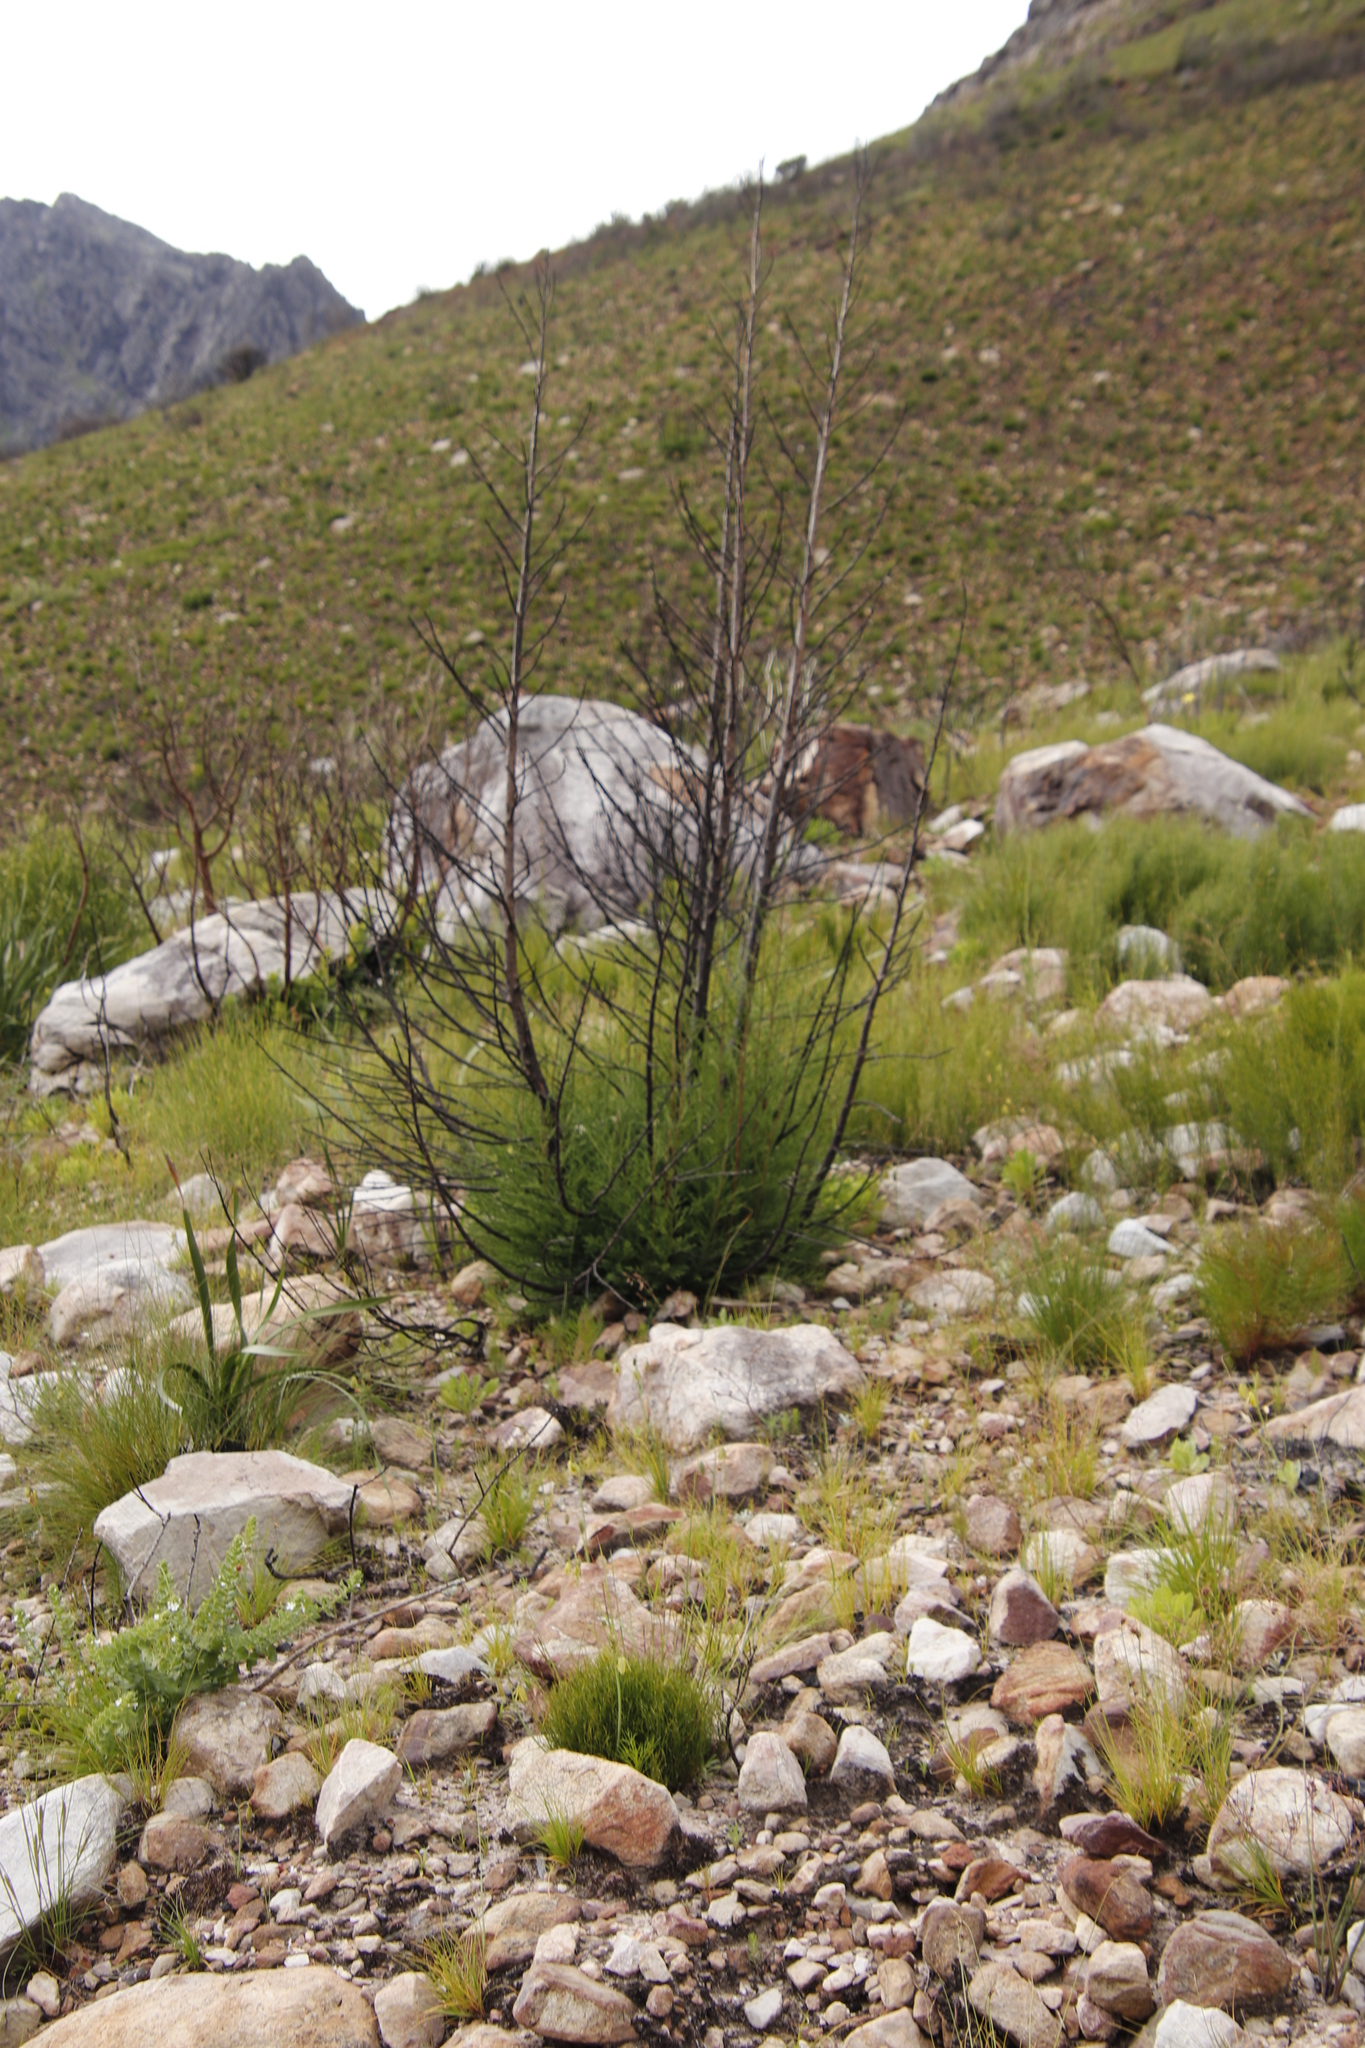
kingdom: Plantae
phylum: Tracheophyta
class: Pinopsida
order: Pinales
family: Cupressaceae
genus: Widdringtonia
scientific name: Widdringtonia nodiflora
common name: Cape cypress
